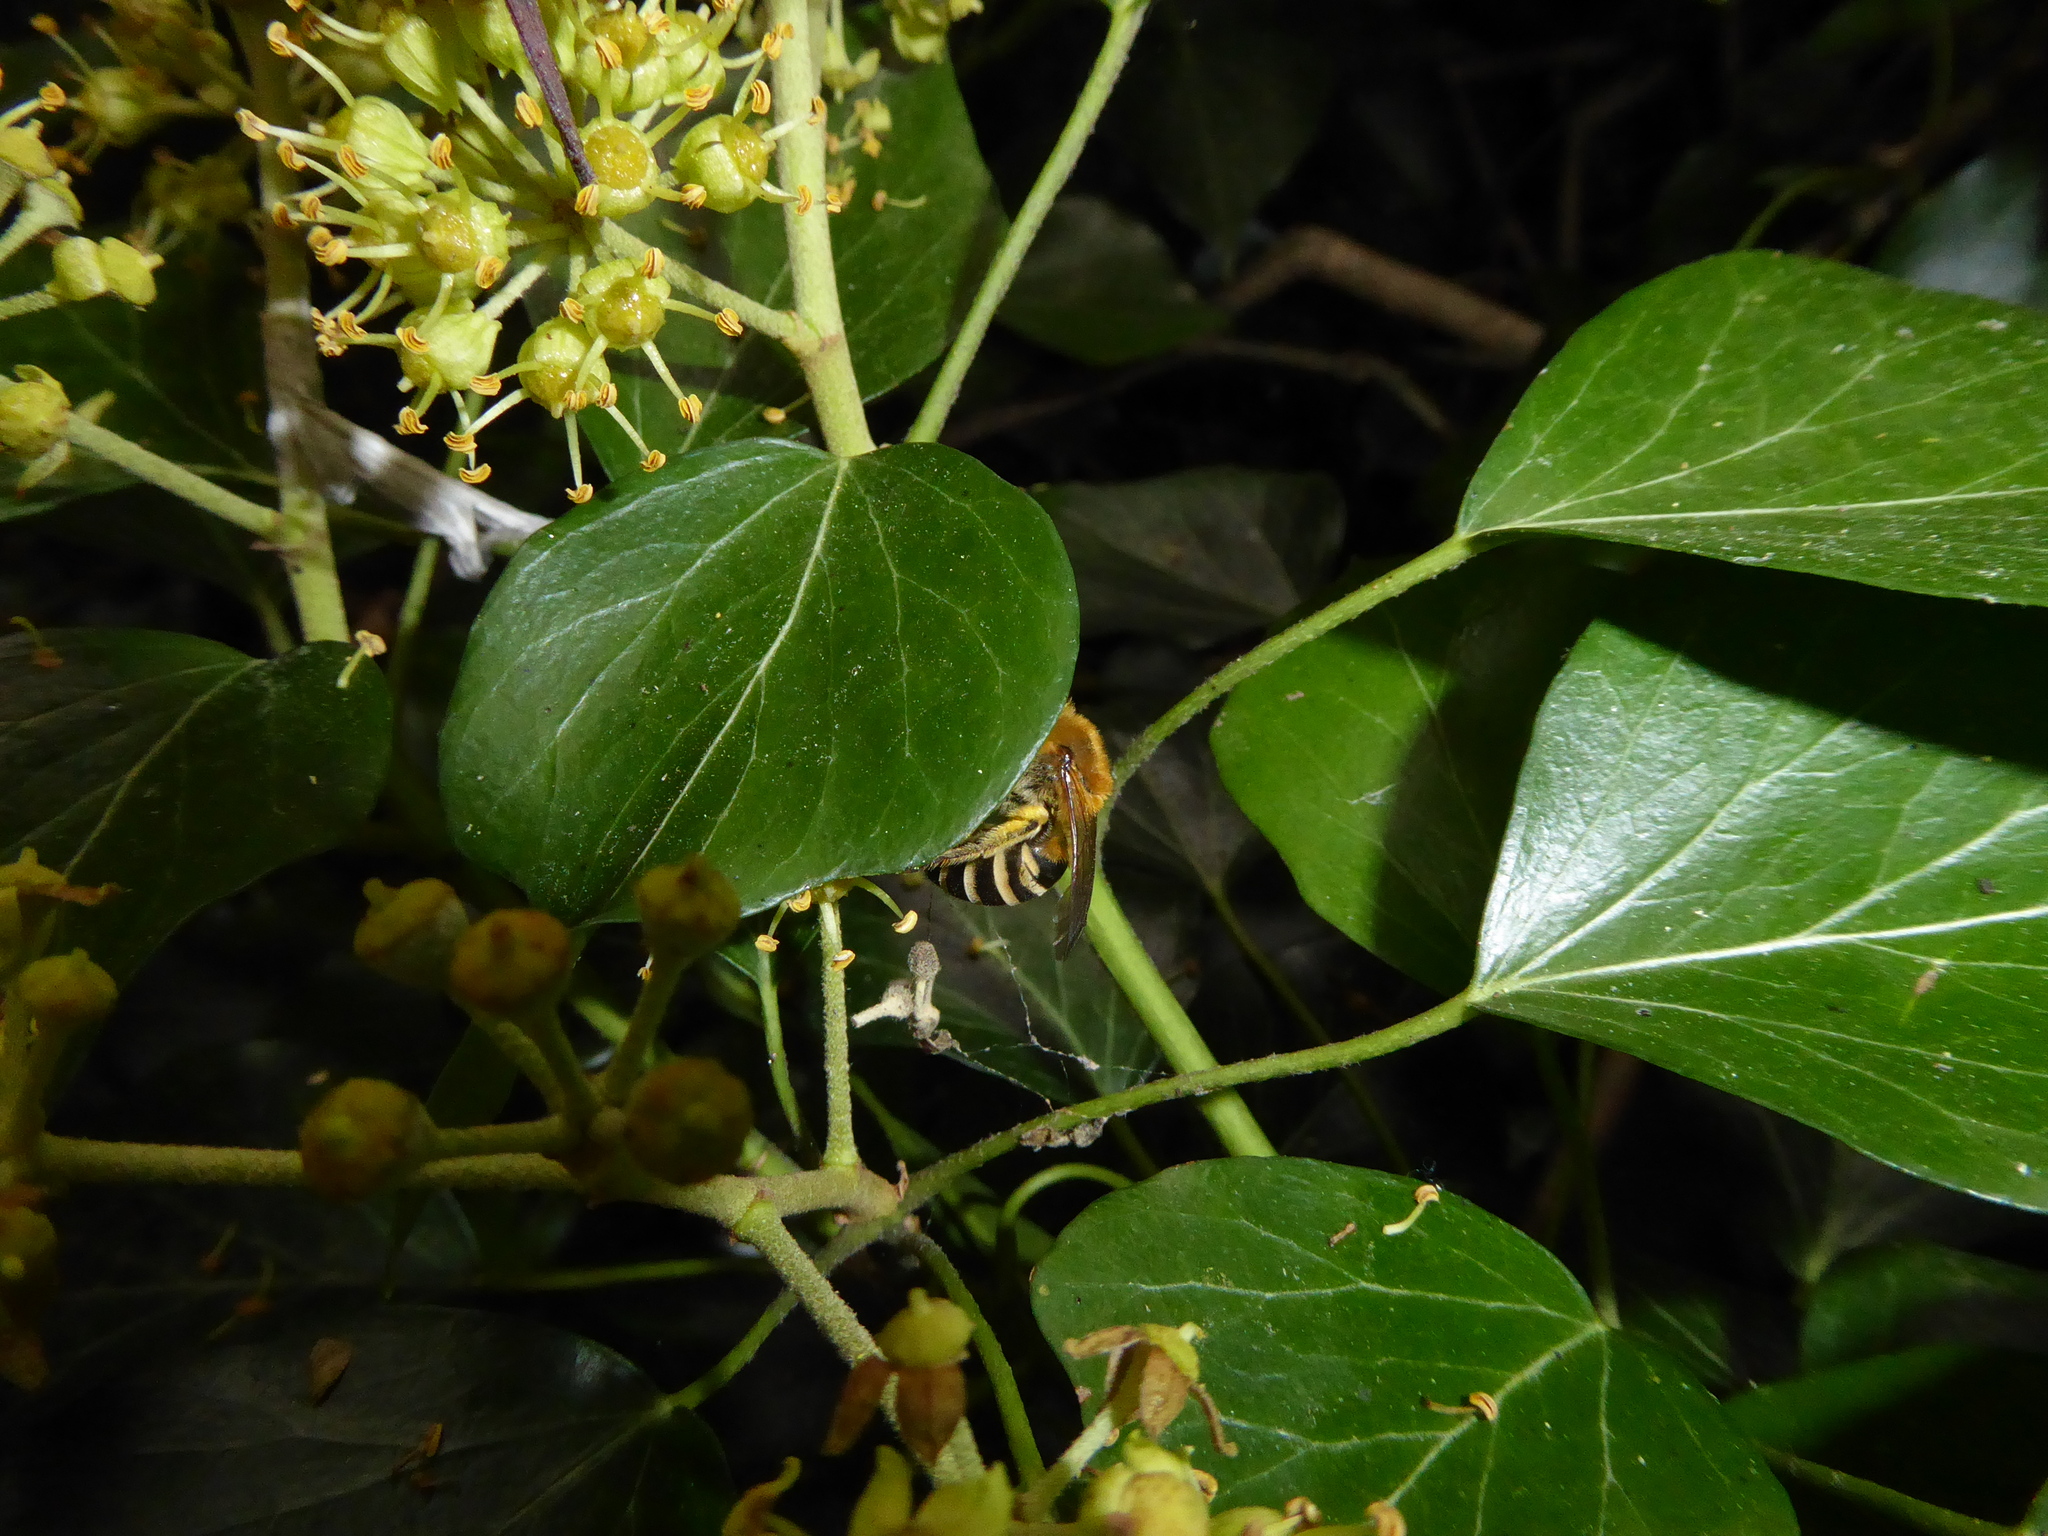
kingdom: Animalia
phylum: Arthropoda
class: Insecta
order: Hymenoptera
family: Colletidae
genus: Colletes
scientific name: Colletes hederae
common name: Ivy bee
